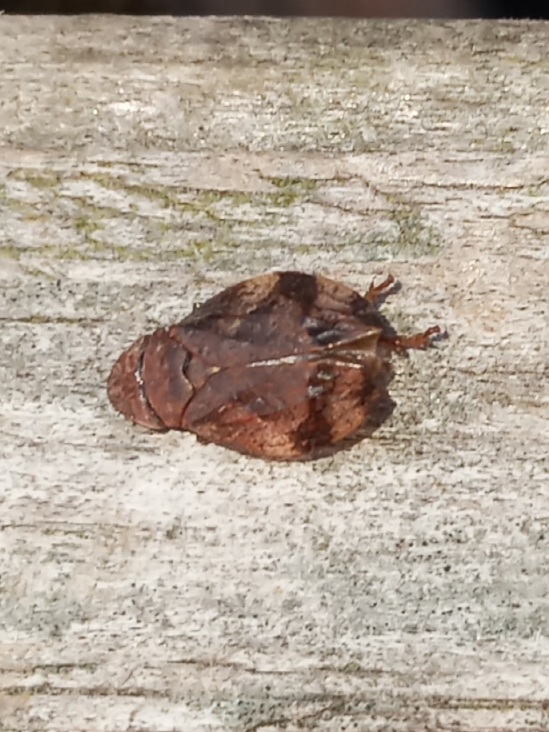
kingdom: Animalia
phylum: Arthropoda
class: Insecta
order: Hemiptera
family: Aphrophoridae
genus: Lepyronia
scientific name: Lepyronia quadrangularis
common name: Diamond-backed spittlebug
